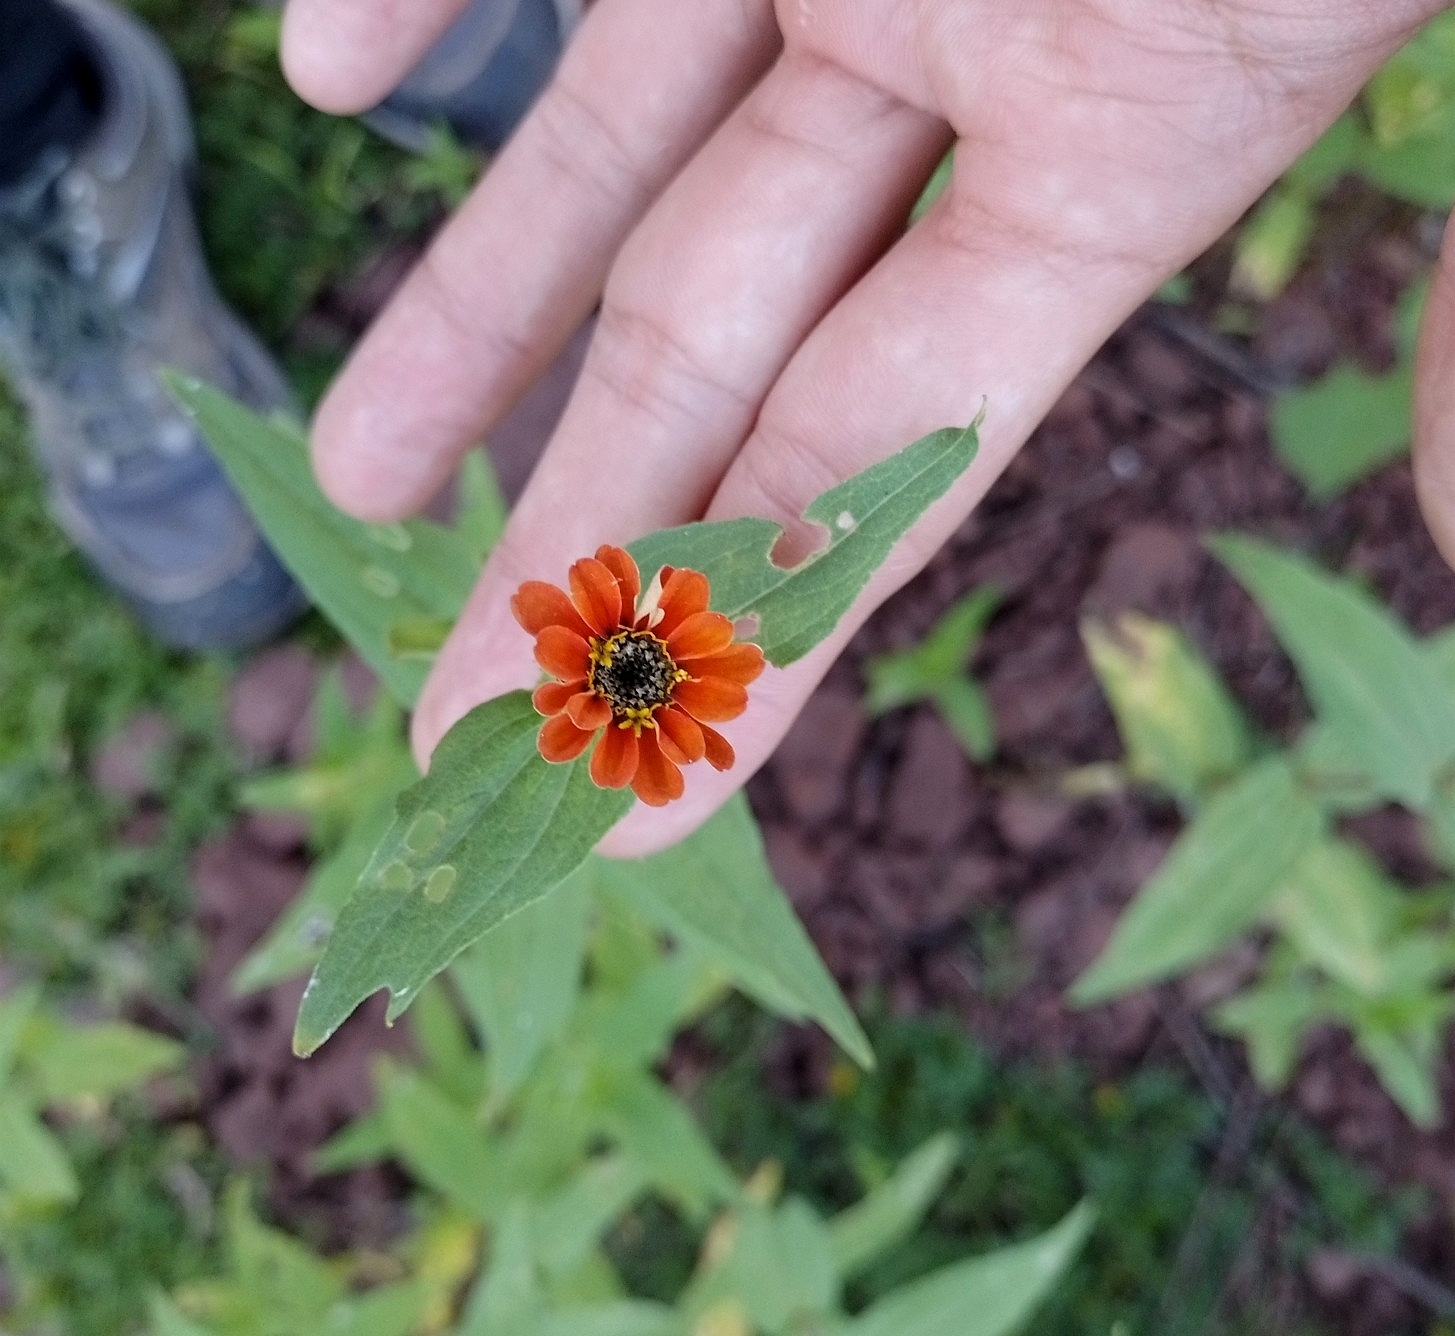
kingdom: Plantae
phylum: Tracheophyta
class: Magnoliopsida
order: Asterales
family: Asteraceae
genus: Zinnia
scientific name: Zinnia peruviana
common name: Peruvian zinnia
